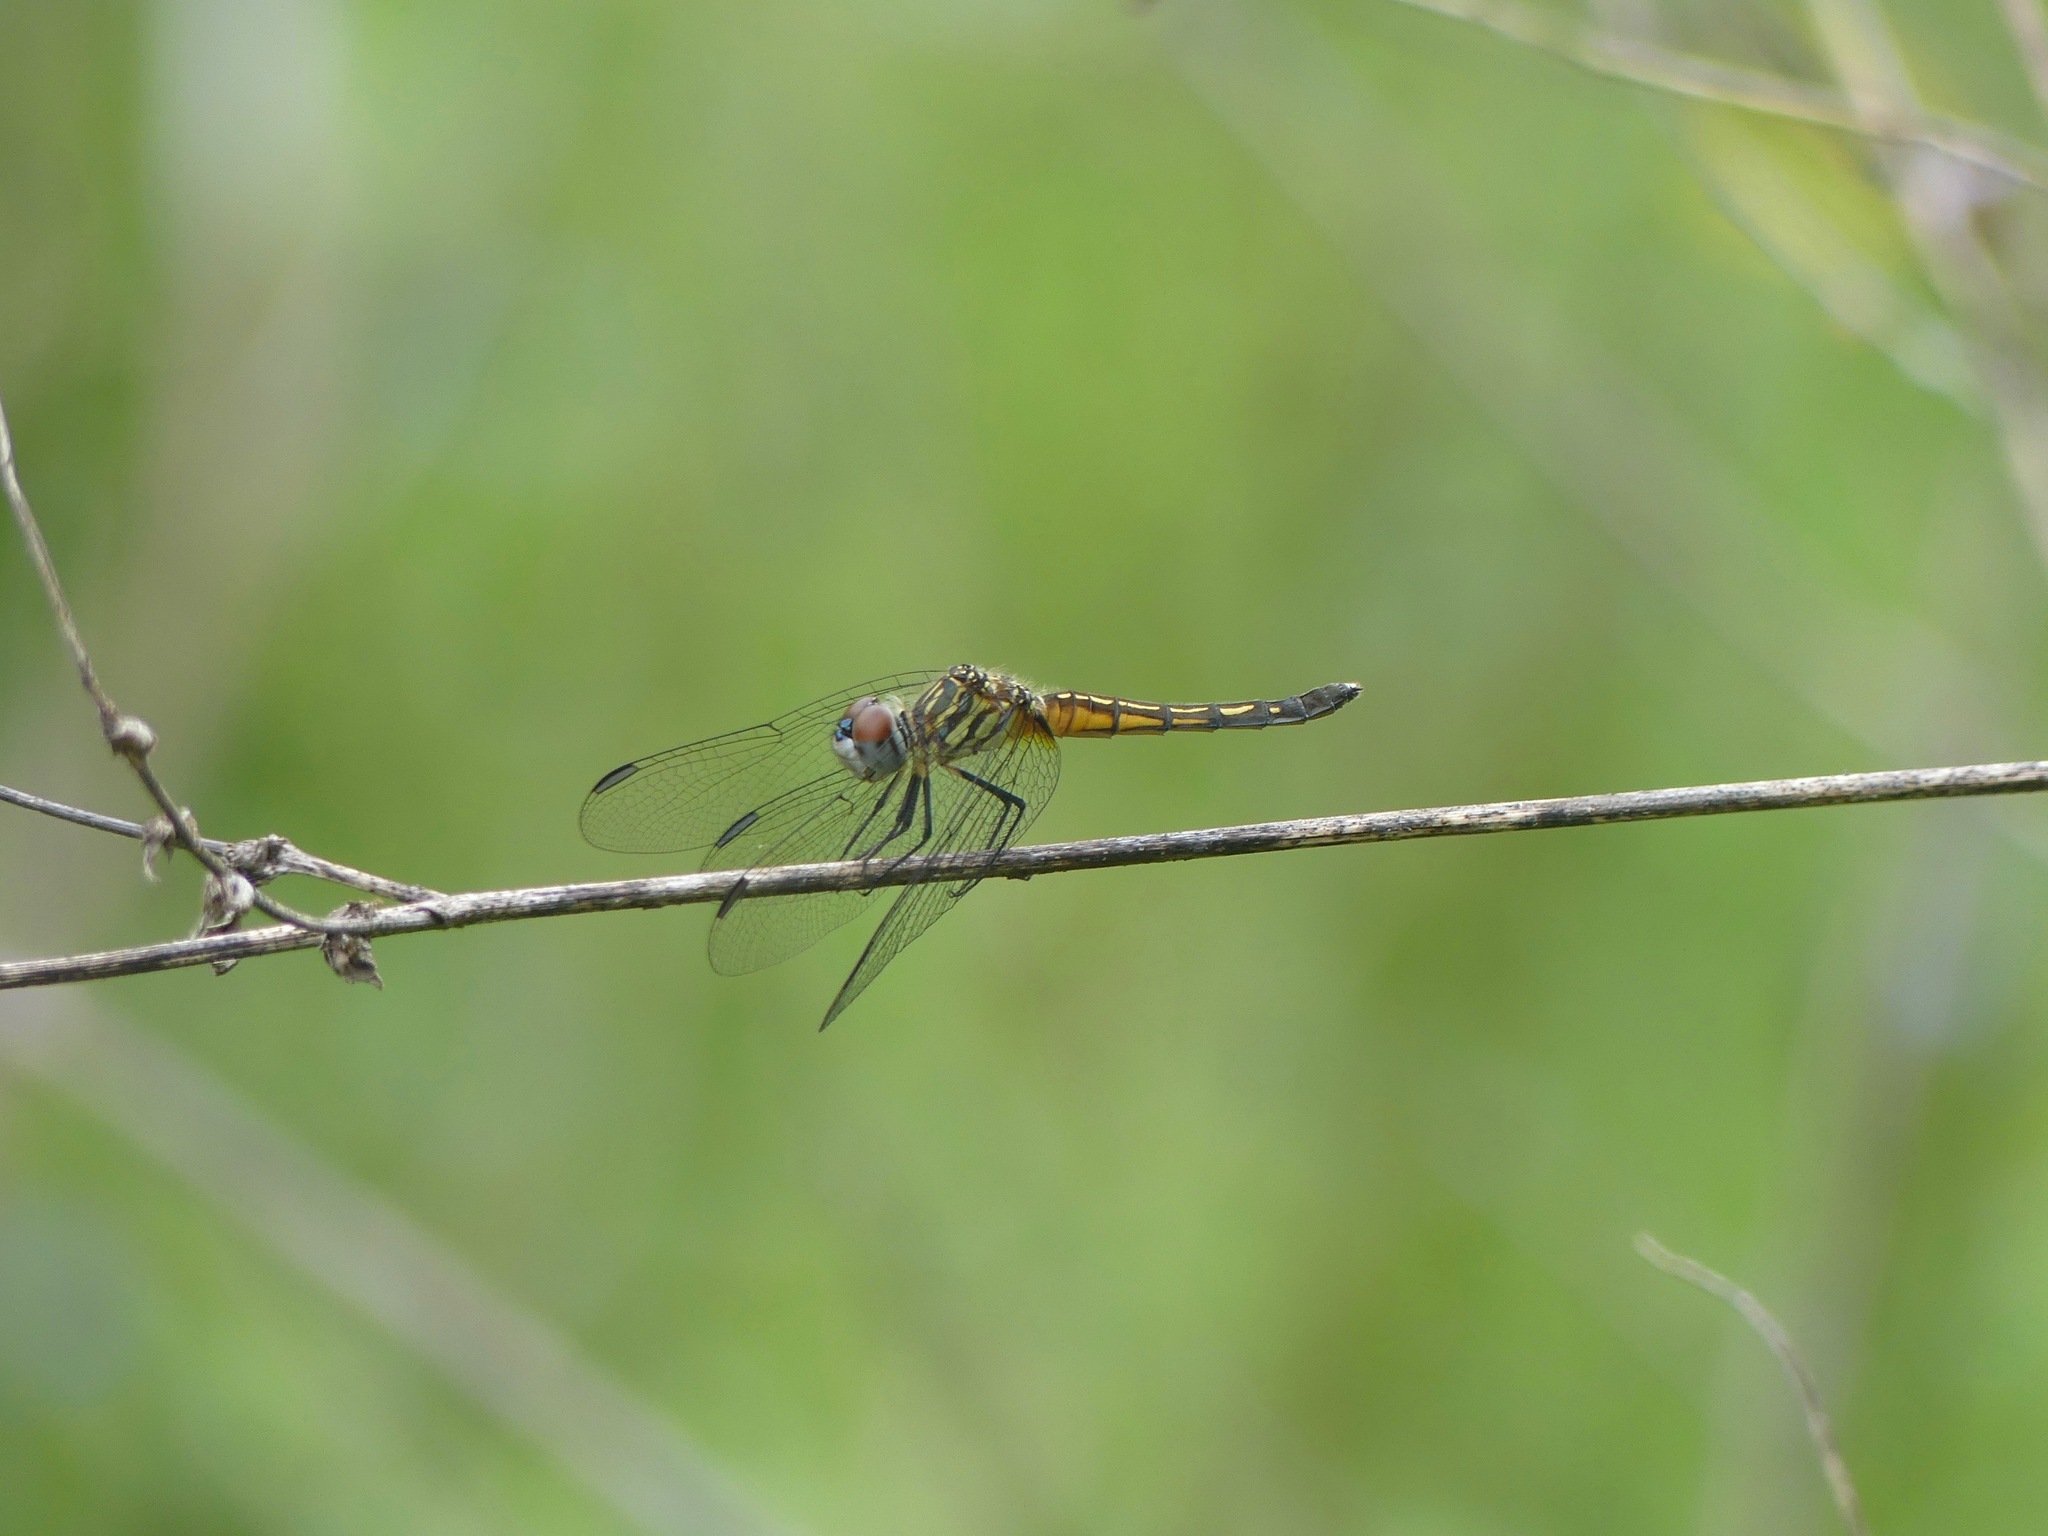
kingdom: Animalia
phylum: Arthropoda
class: Insecta
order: Odonata
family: Libellulidae
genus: Pachydiplax
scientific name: Pachydiplax longipennis
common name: Blue dasher
